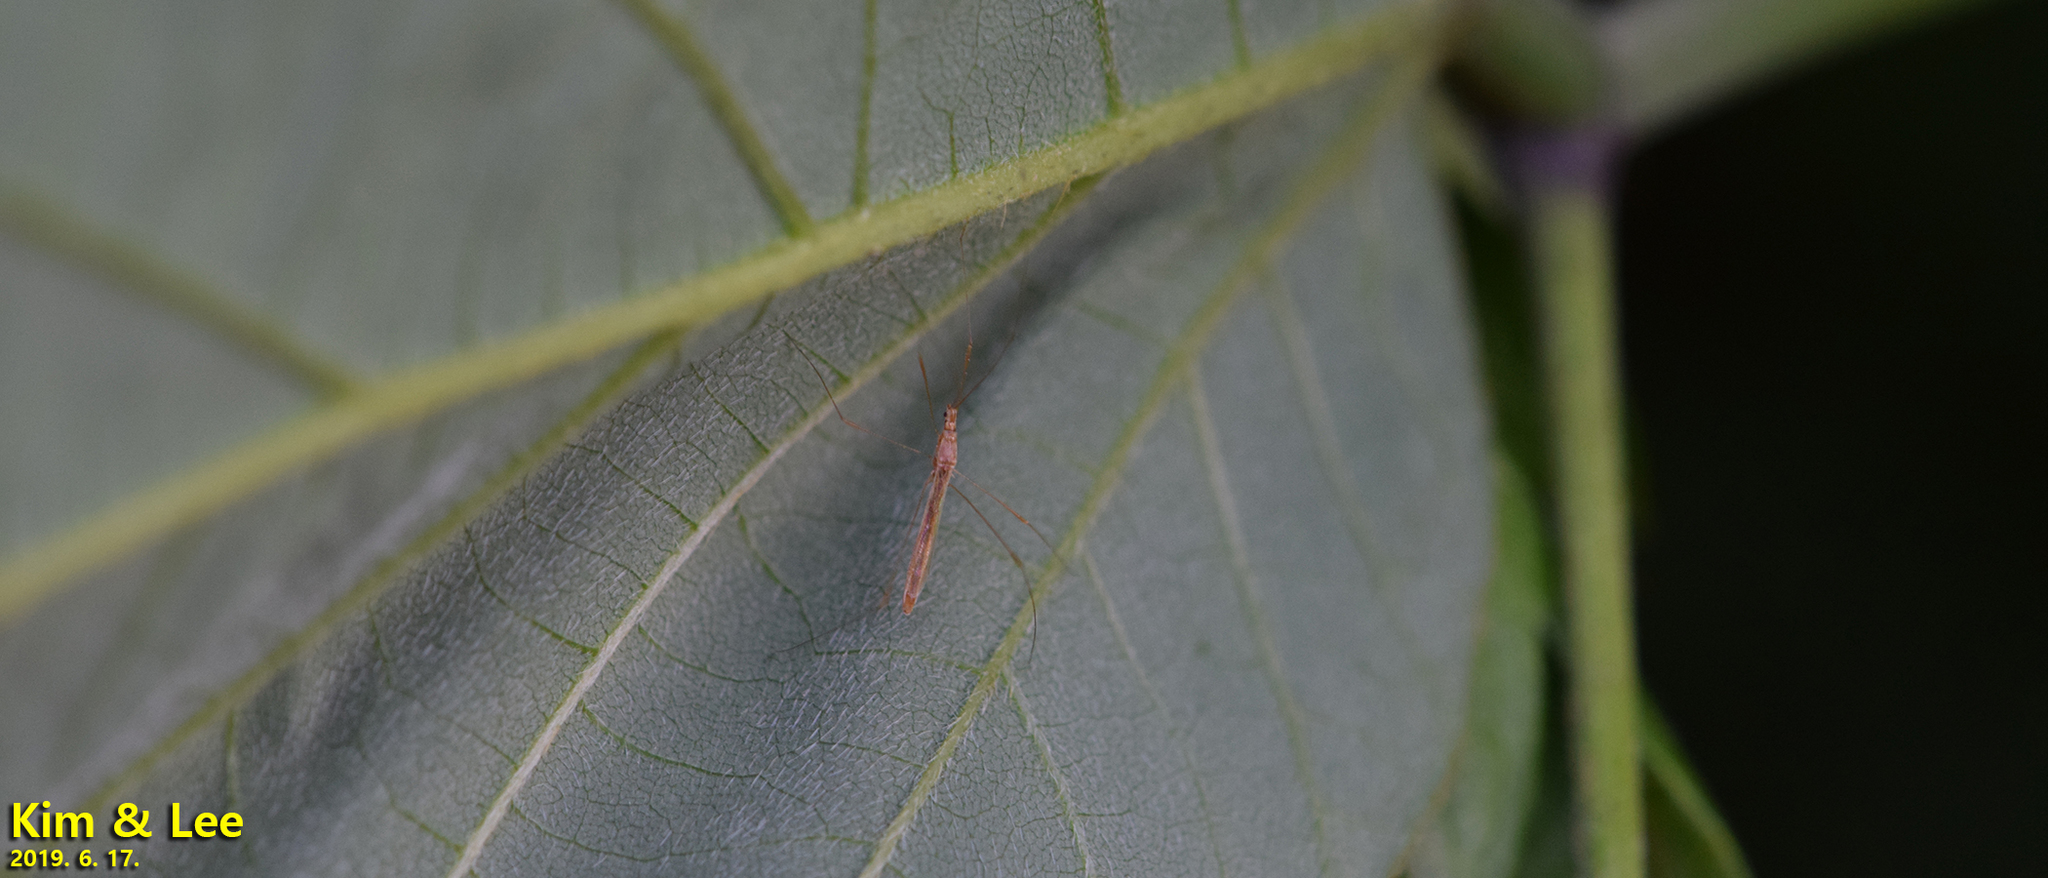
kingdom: Animalia
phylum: Arthropoda
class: Insecta
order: Hemiptera
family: Berytidae
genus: Yemma
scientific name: Yemma exilis
